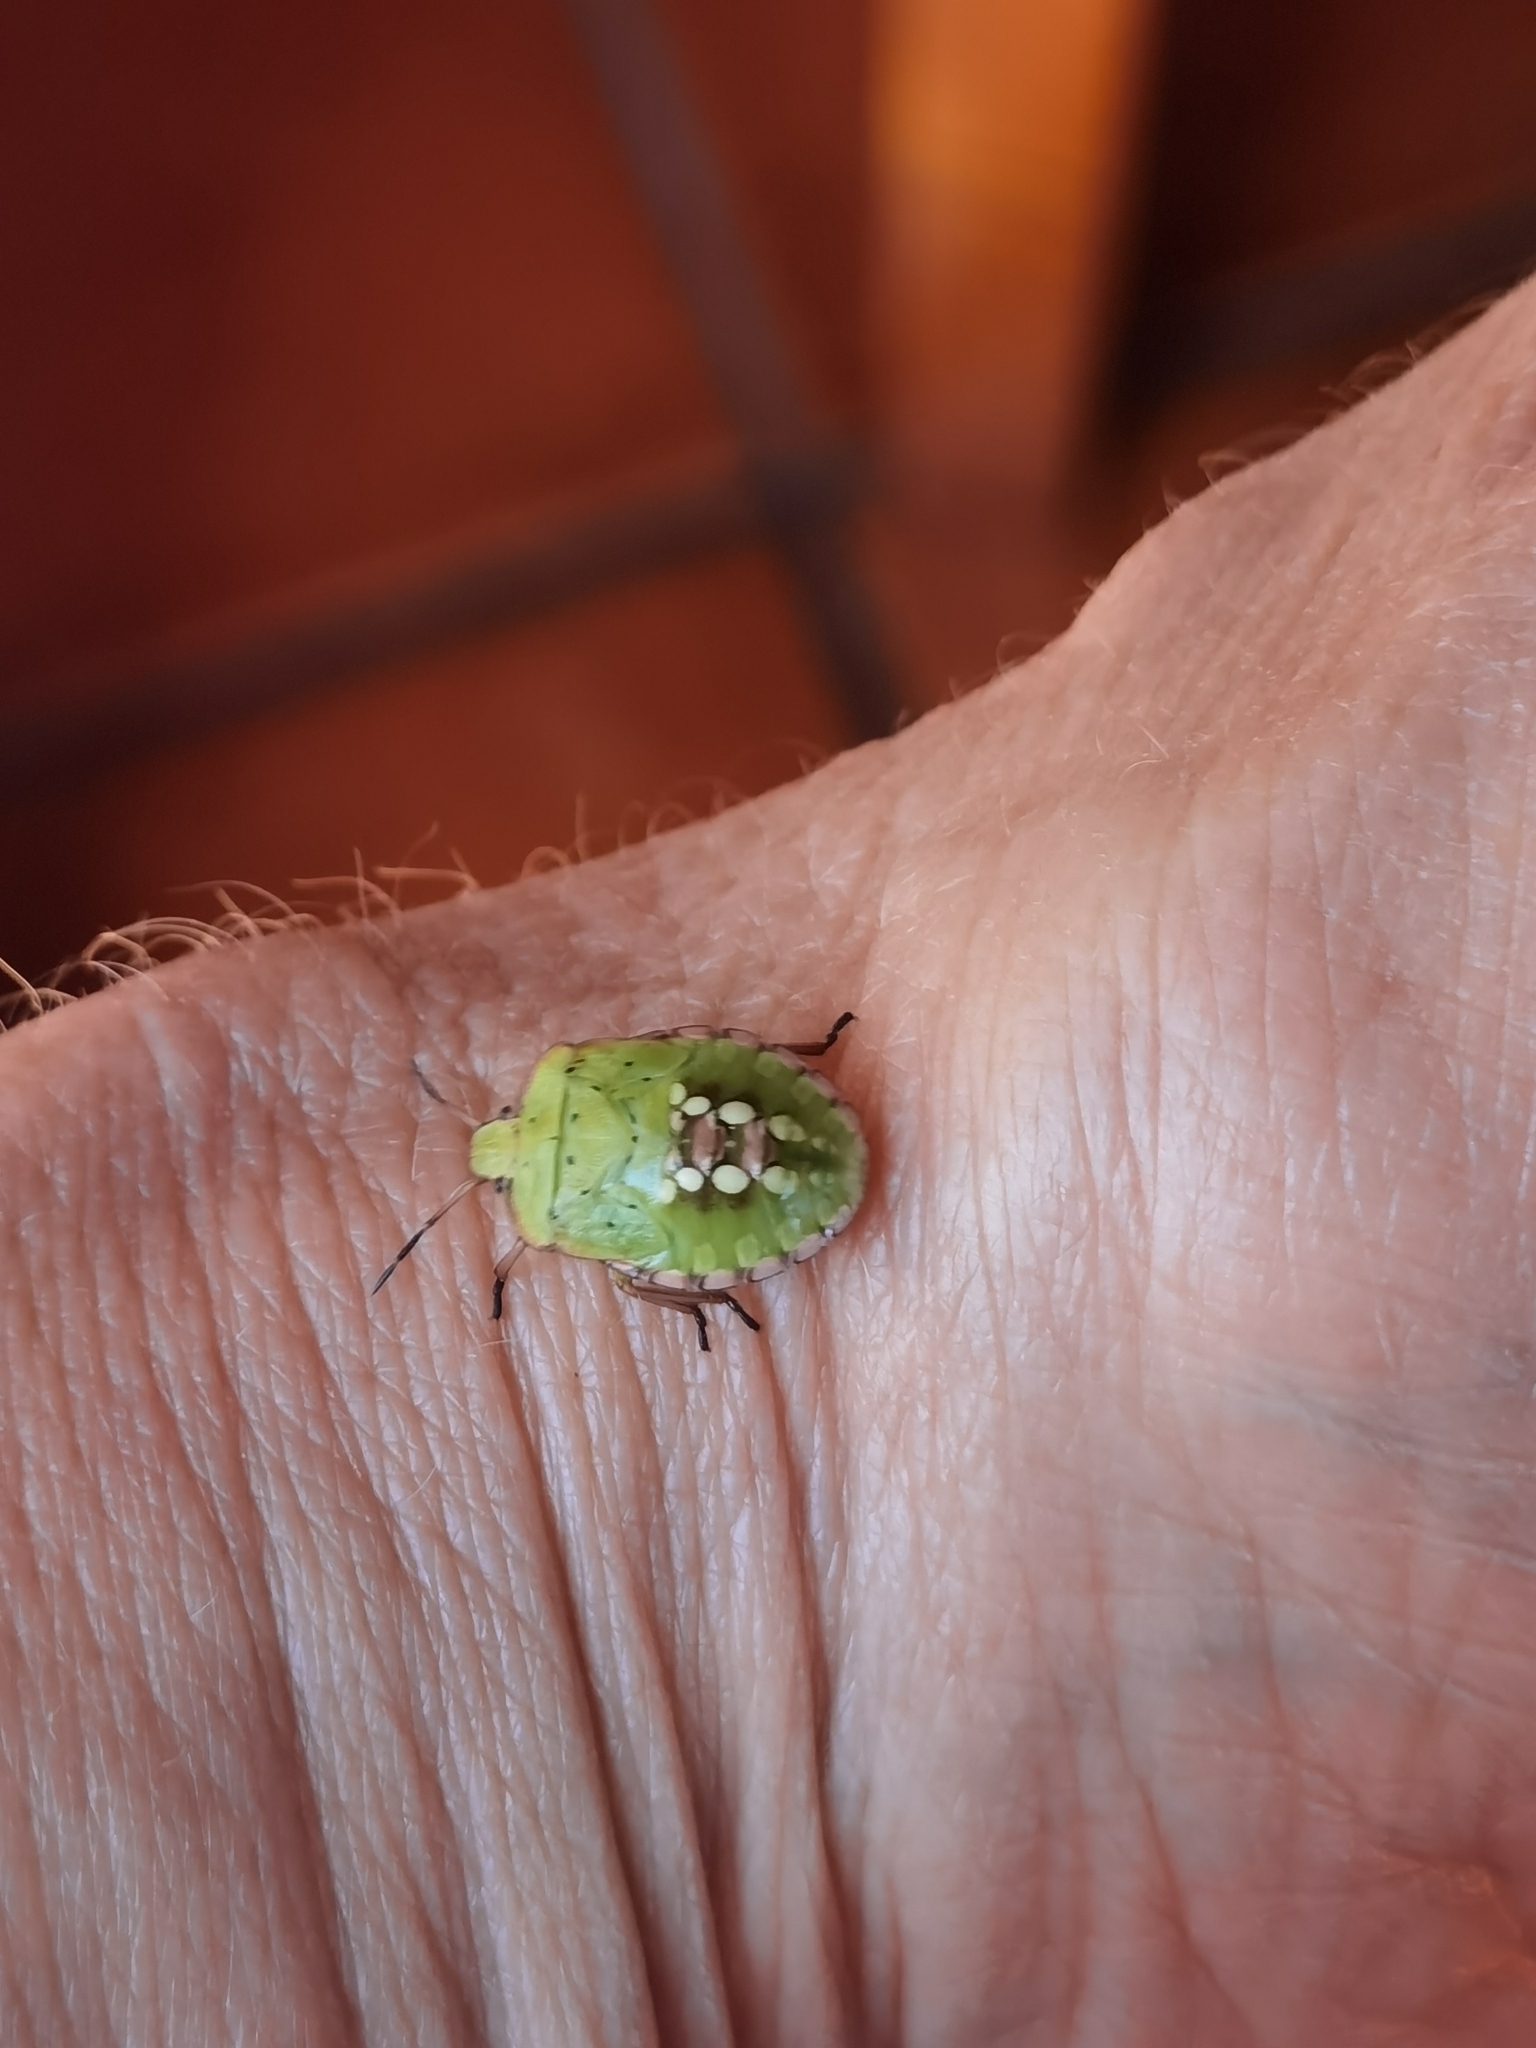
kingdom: Animalia
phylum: Arthropoda
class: Insecta
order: Hemiptera
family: Pentatomidae
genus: Nezara
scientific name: Nezara viridula
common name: Southern green stink bug
